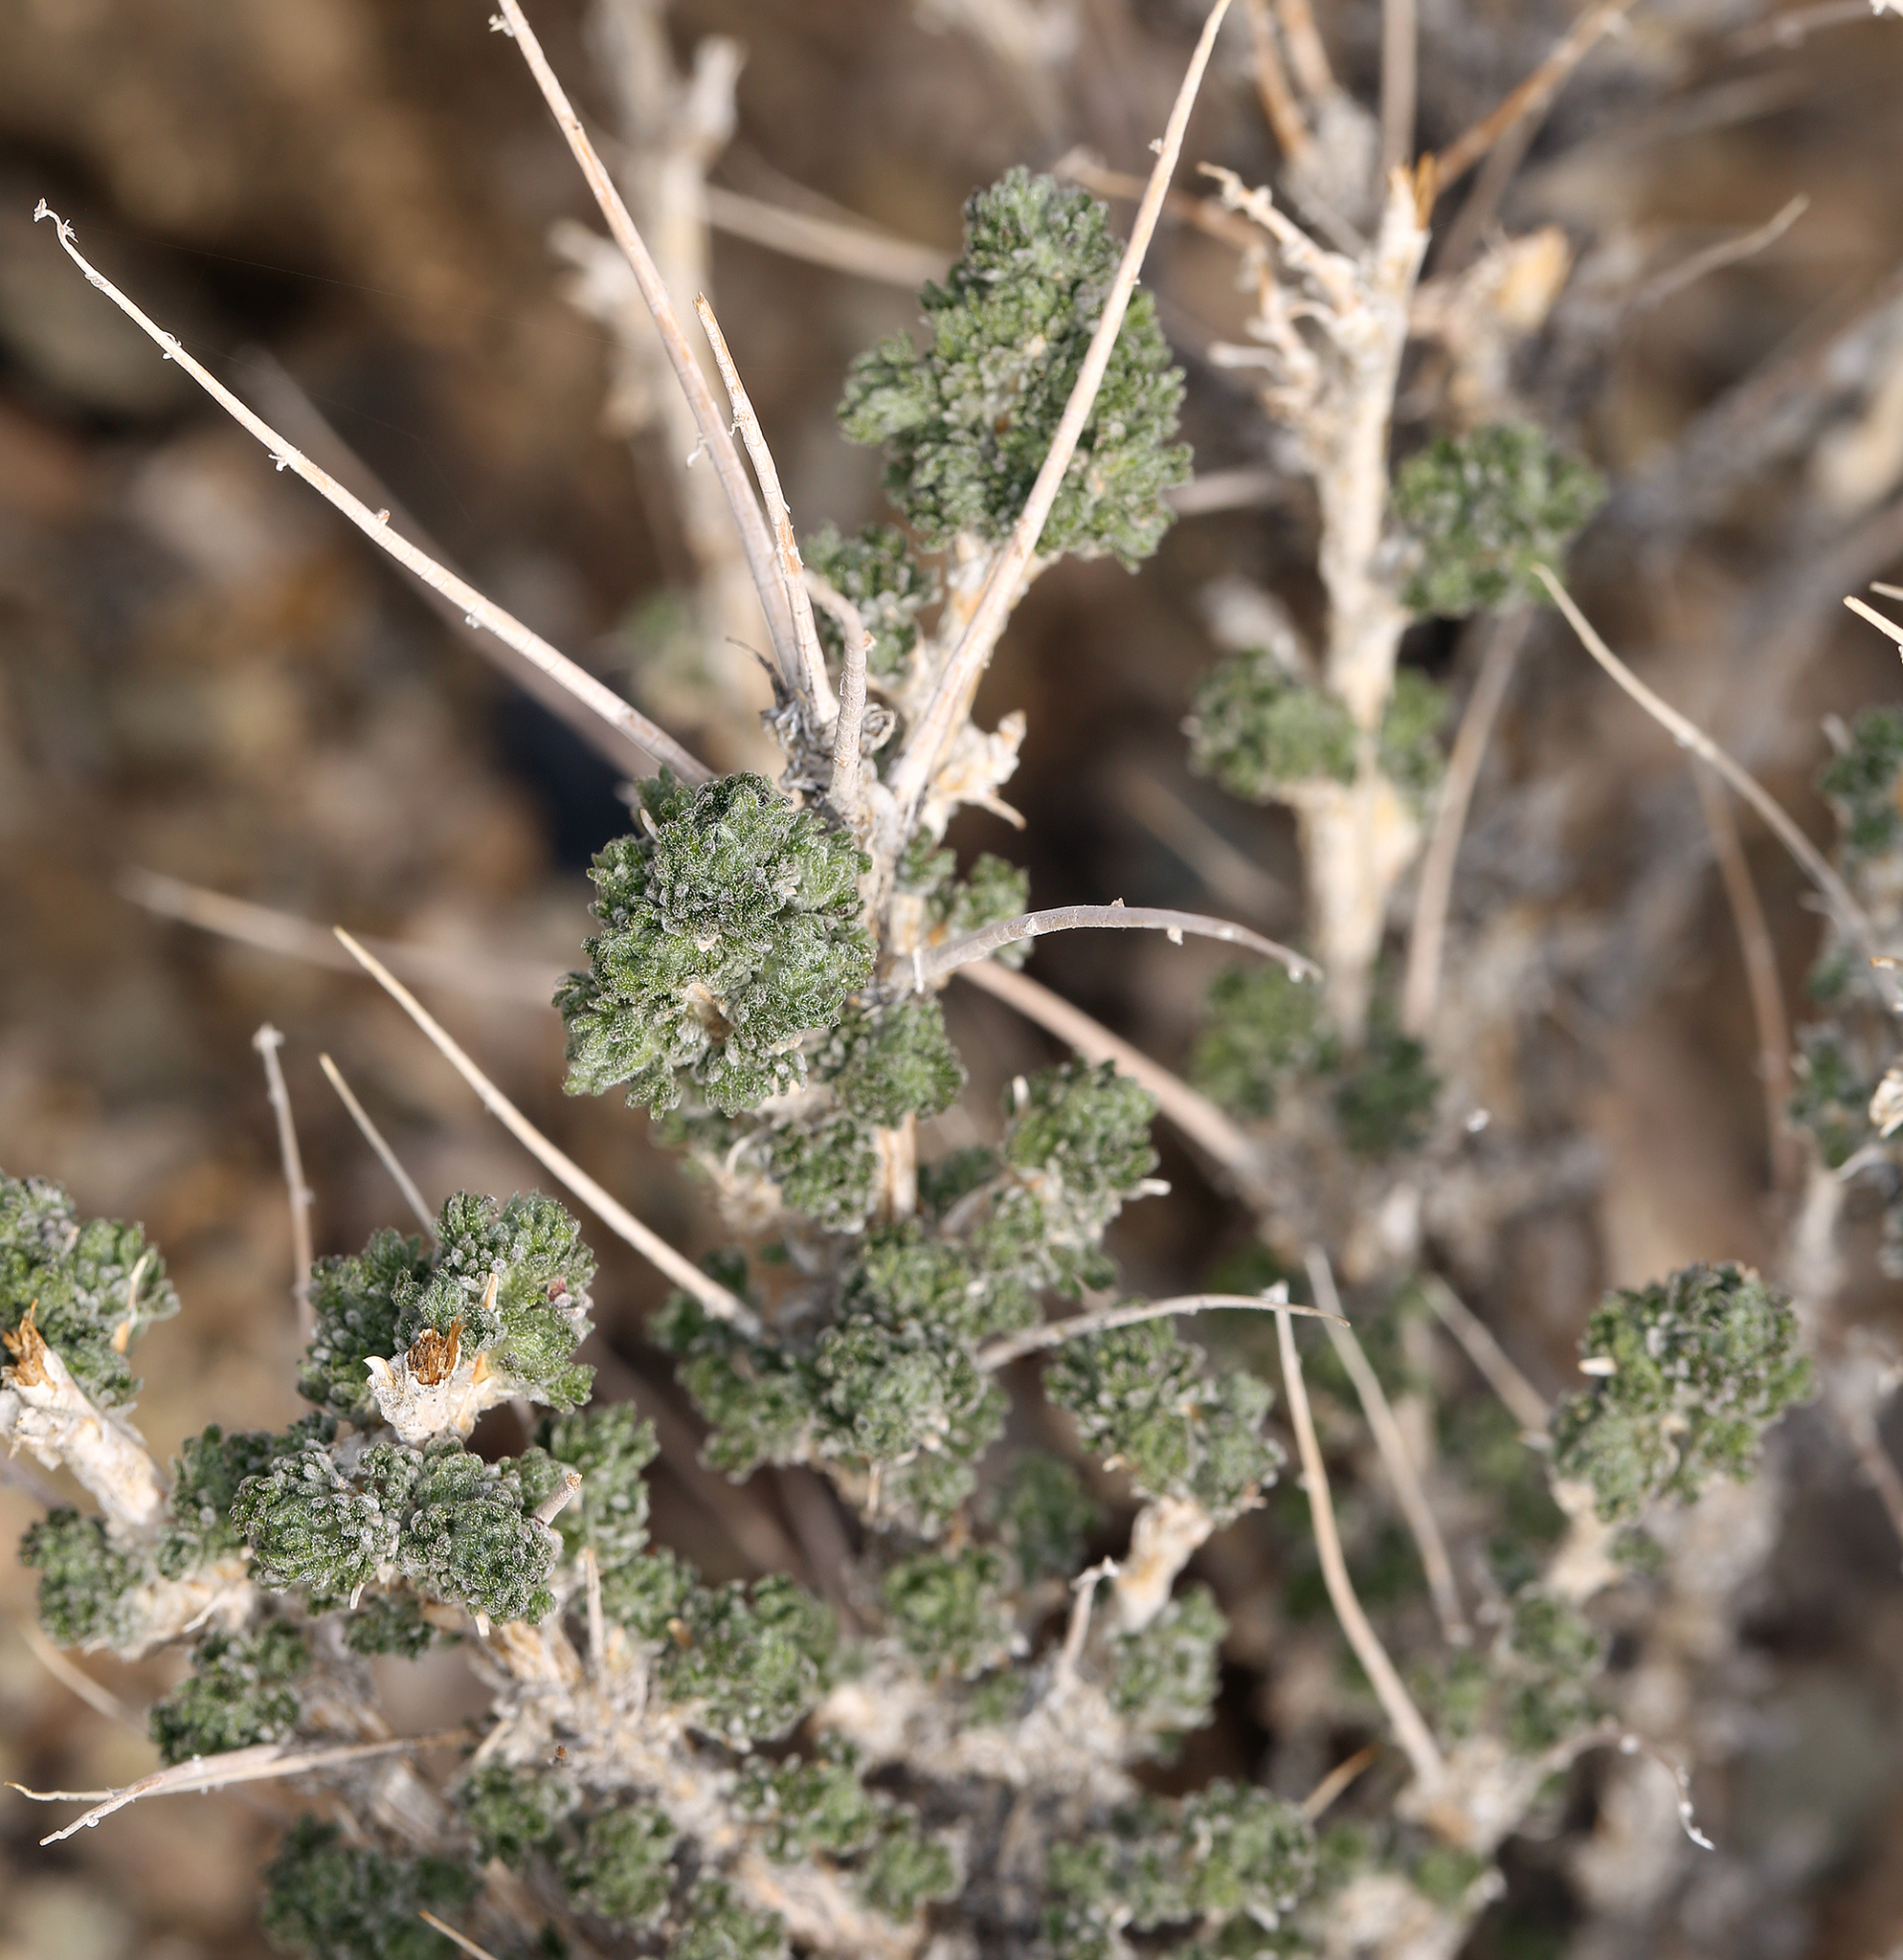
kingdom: Plantae
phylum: Tracheophyta
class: Magnoliopsida
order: Asterales
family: Asteraceae
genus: Artemisia
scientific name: Artemisia spinescens
